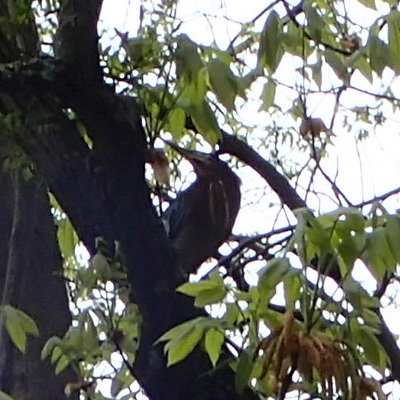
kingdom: Animalia
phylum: Chordata
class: Aves
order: Pelecaniformes
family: Ardeidae
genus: Butorides
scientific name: Butorides virescens
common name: Green heron
